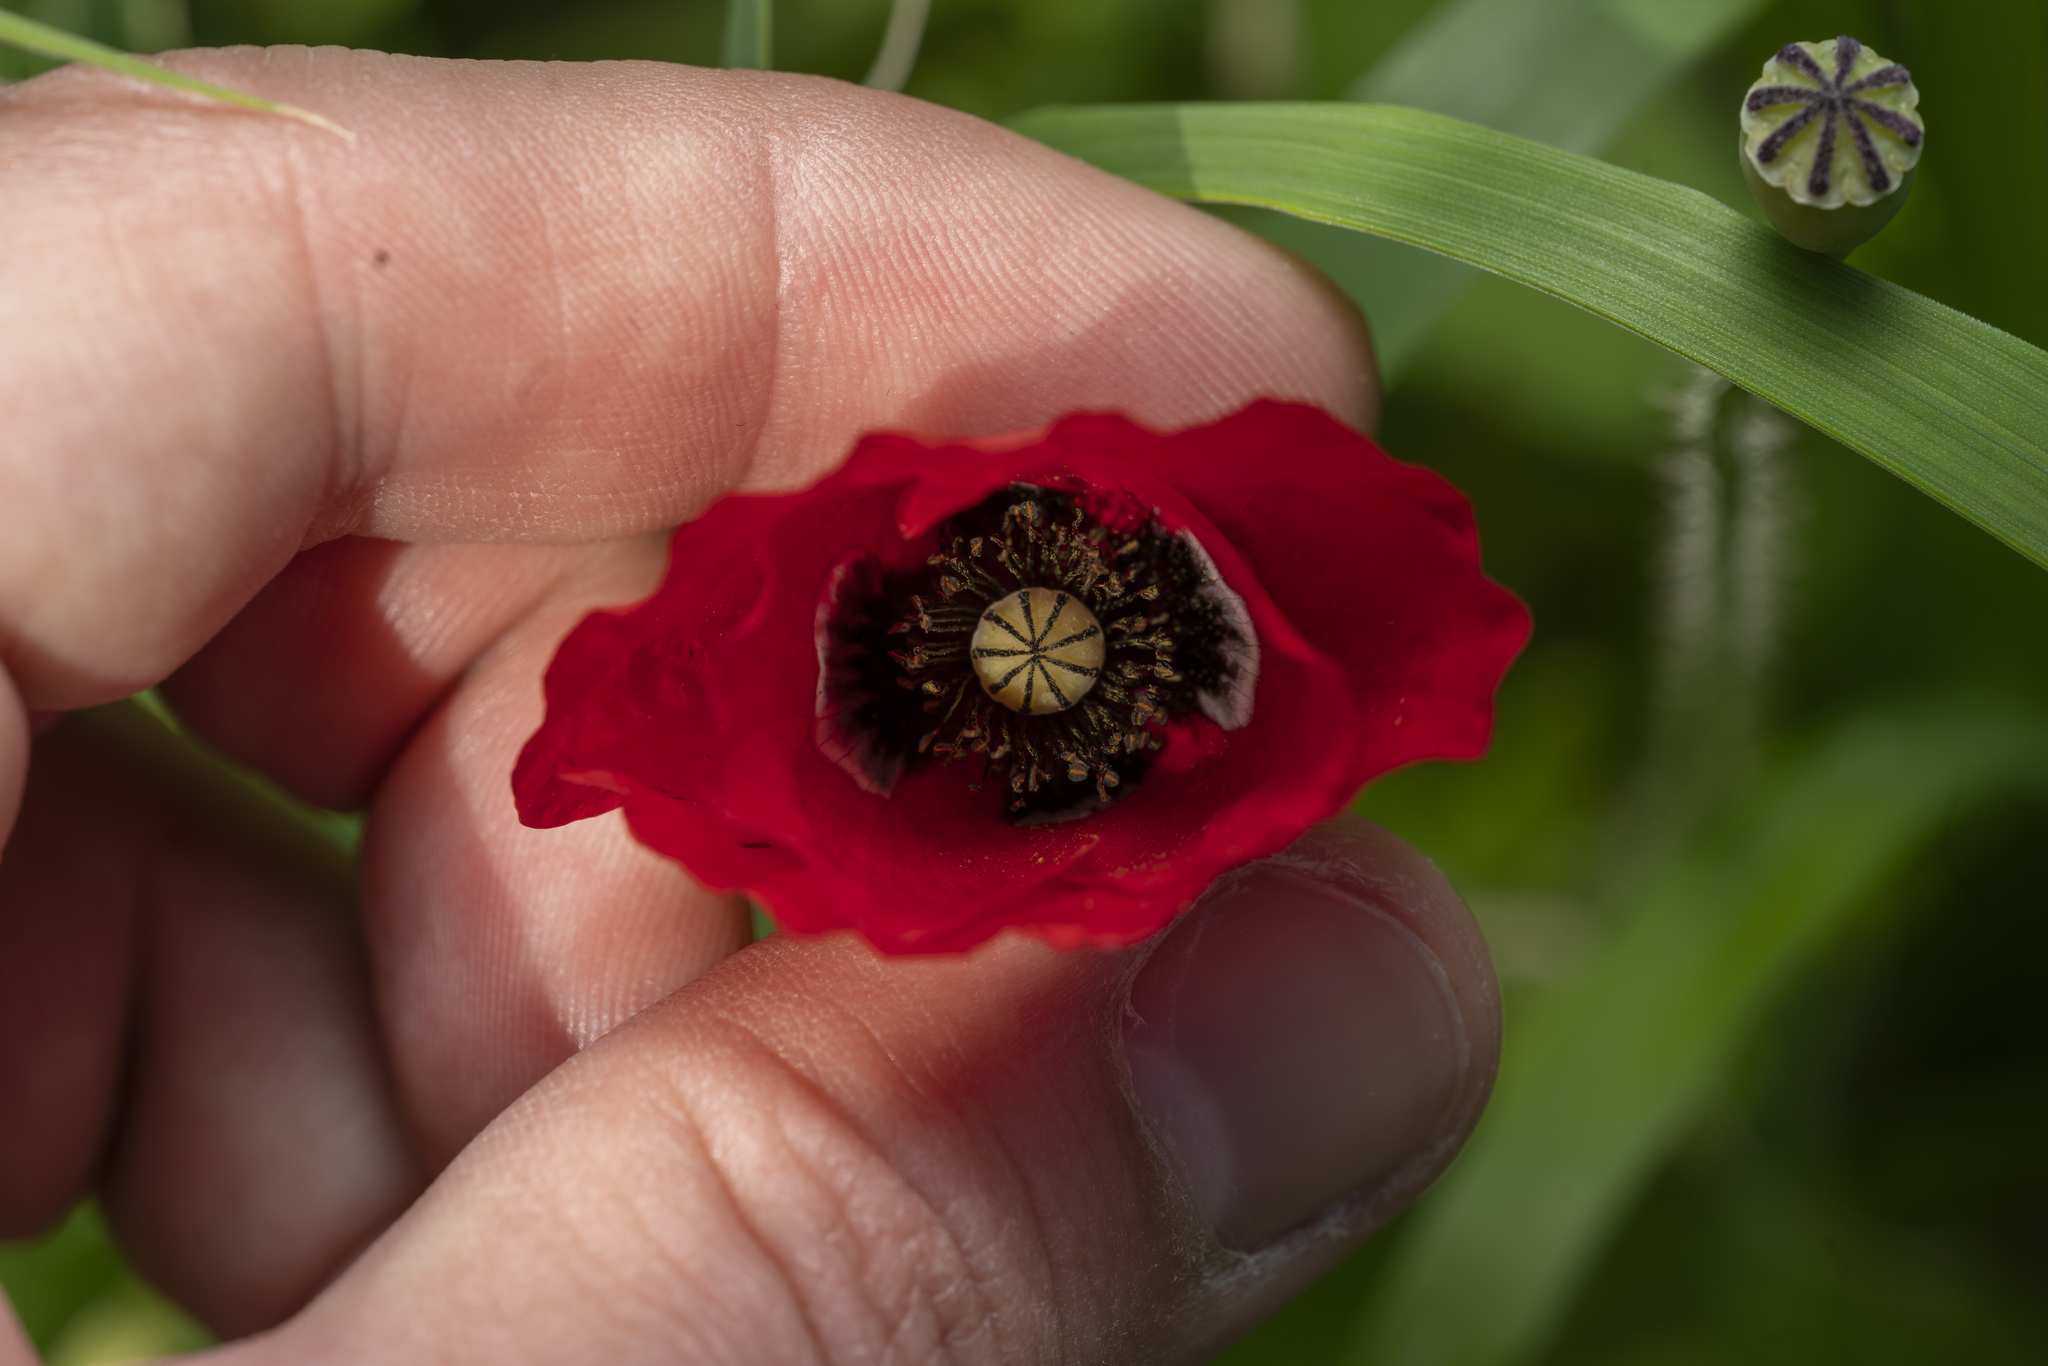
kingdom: Plantae
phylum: Tracheophyta
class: Magnoliopsida
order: Ranunculales
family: Papaveraceae
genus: Papaver
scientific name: Papaver rhoeas
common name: Corn poppy
